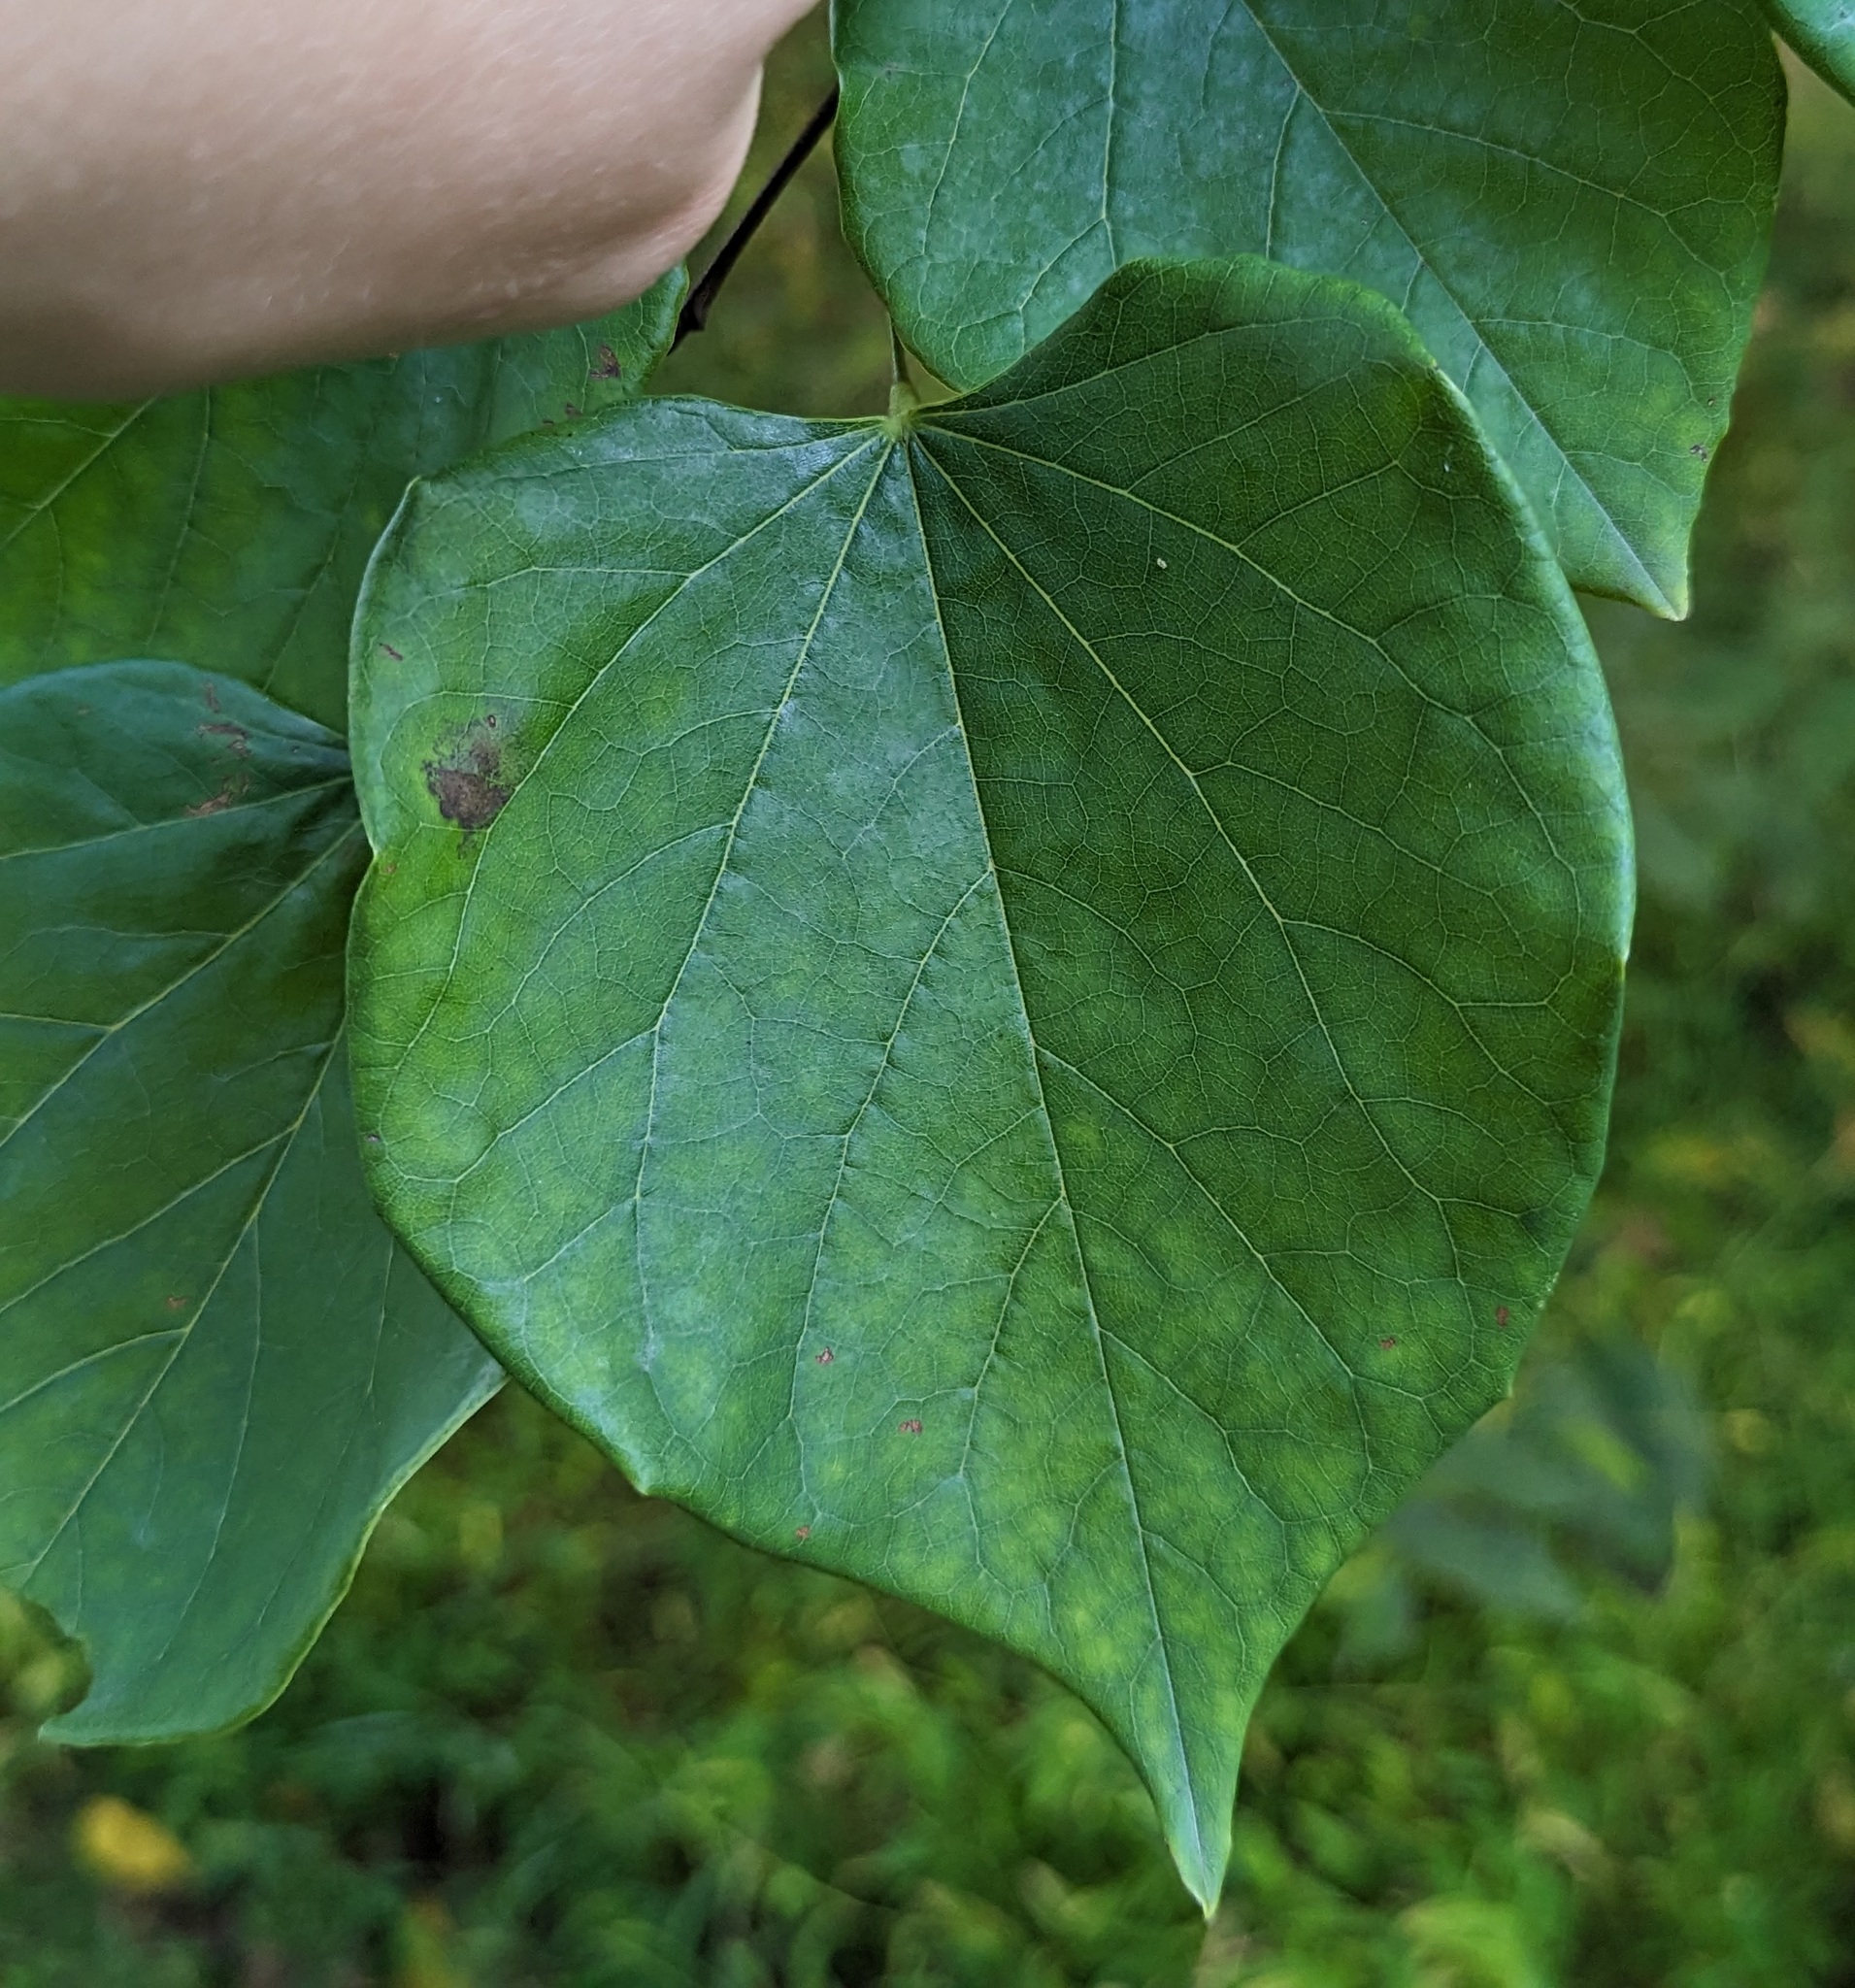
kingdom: Plantae
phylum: Tracheophyta
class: Magnoliopsida
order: Fabales
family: Fabaceae
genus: Cercis
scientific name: Cercis canadensis
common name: Eastern redbud
